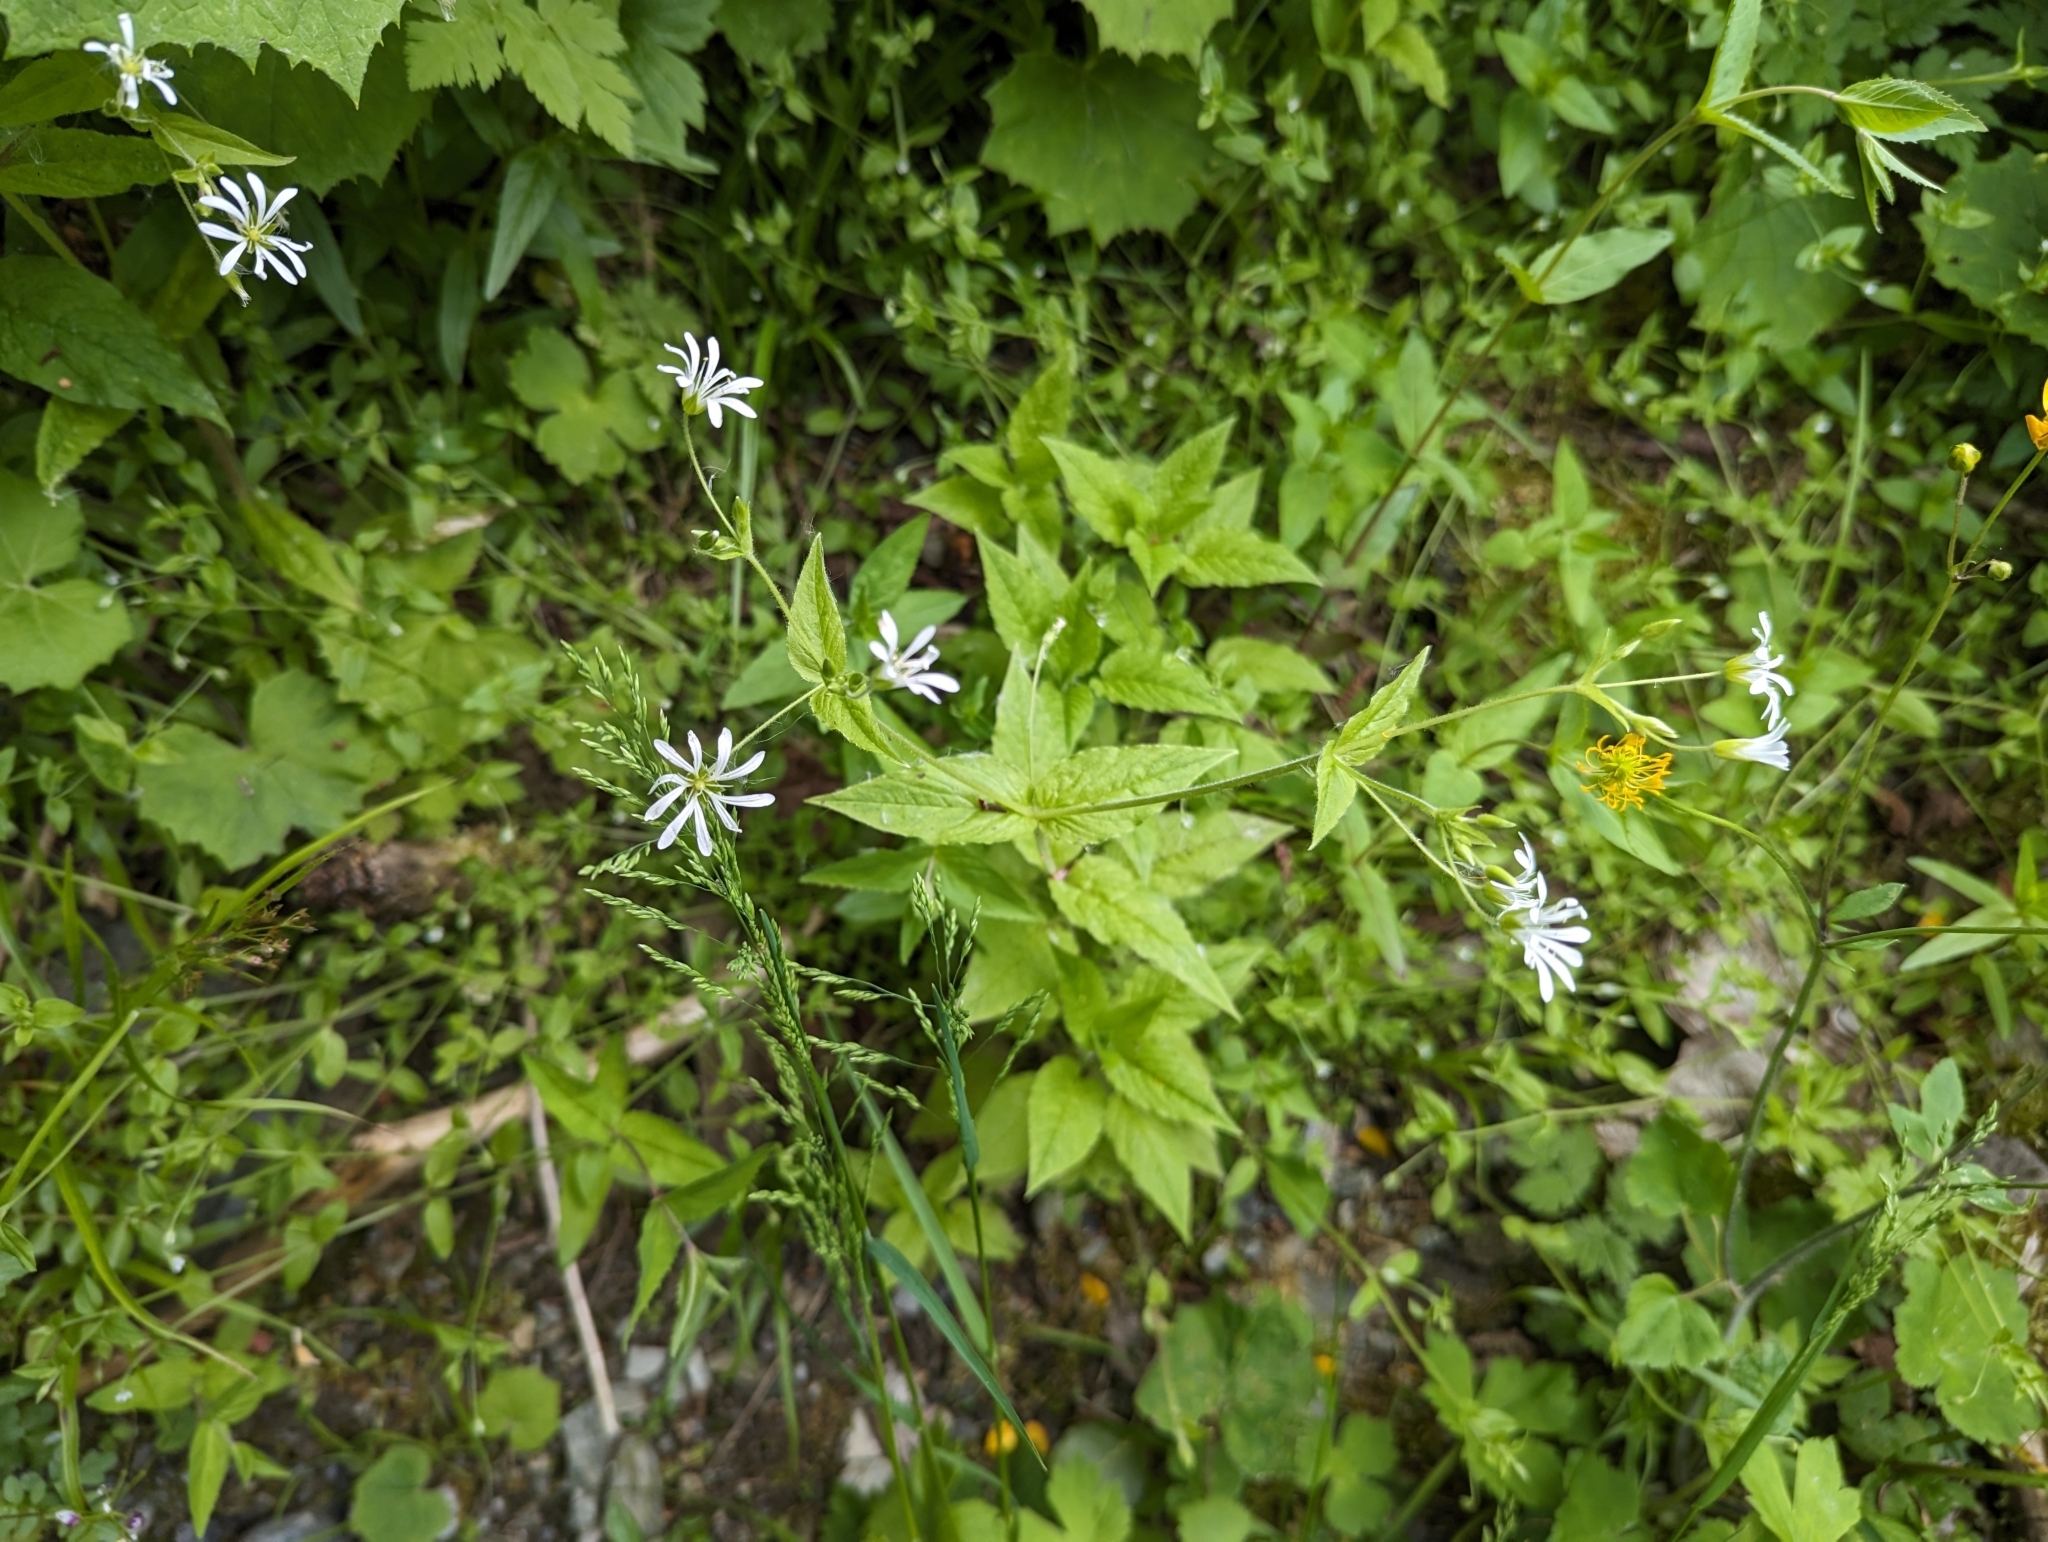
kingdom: Plantae
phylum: Tracheophyta
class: Magnoliopsida
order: Caryophyllales
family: Caryophyllaceae
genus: Stellaria
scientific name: Stellaria nemorum
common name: Wood stitchwort
